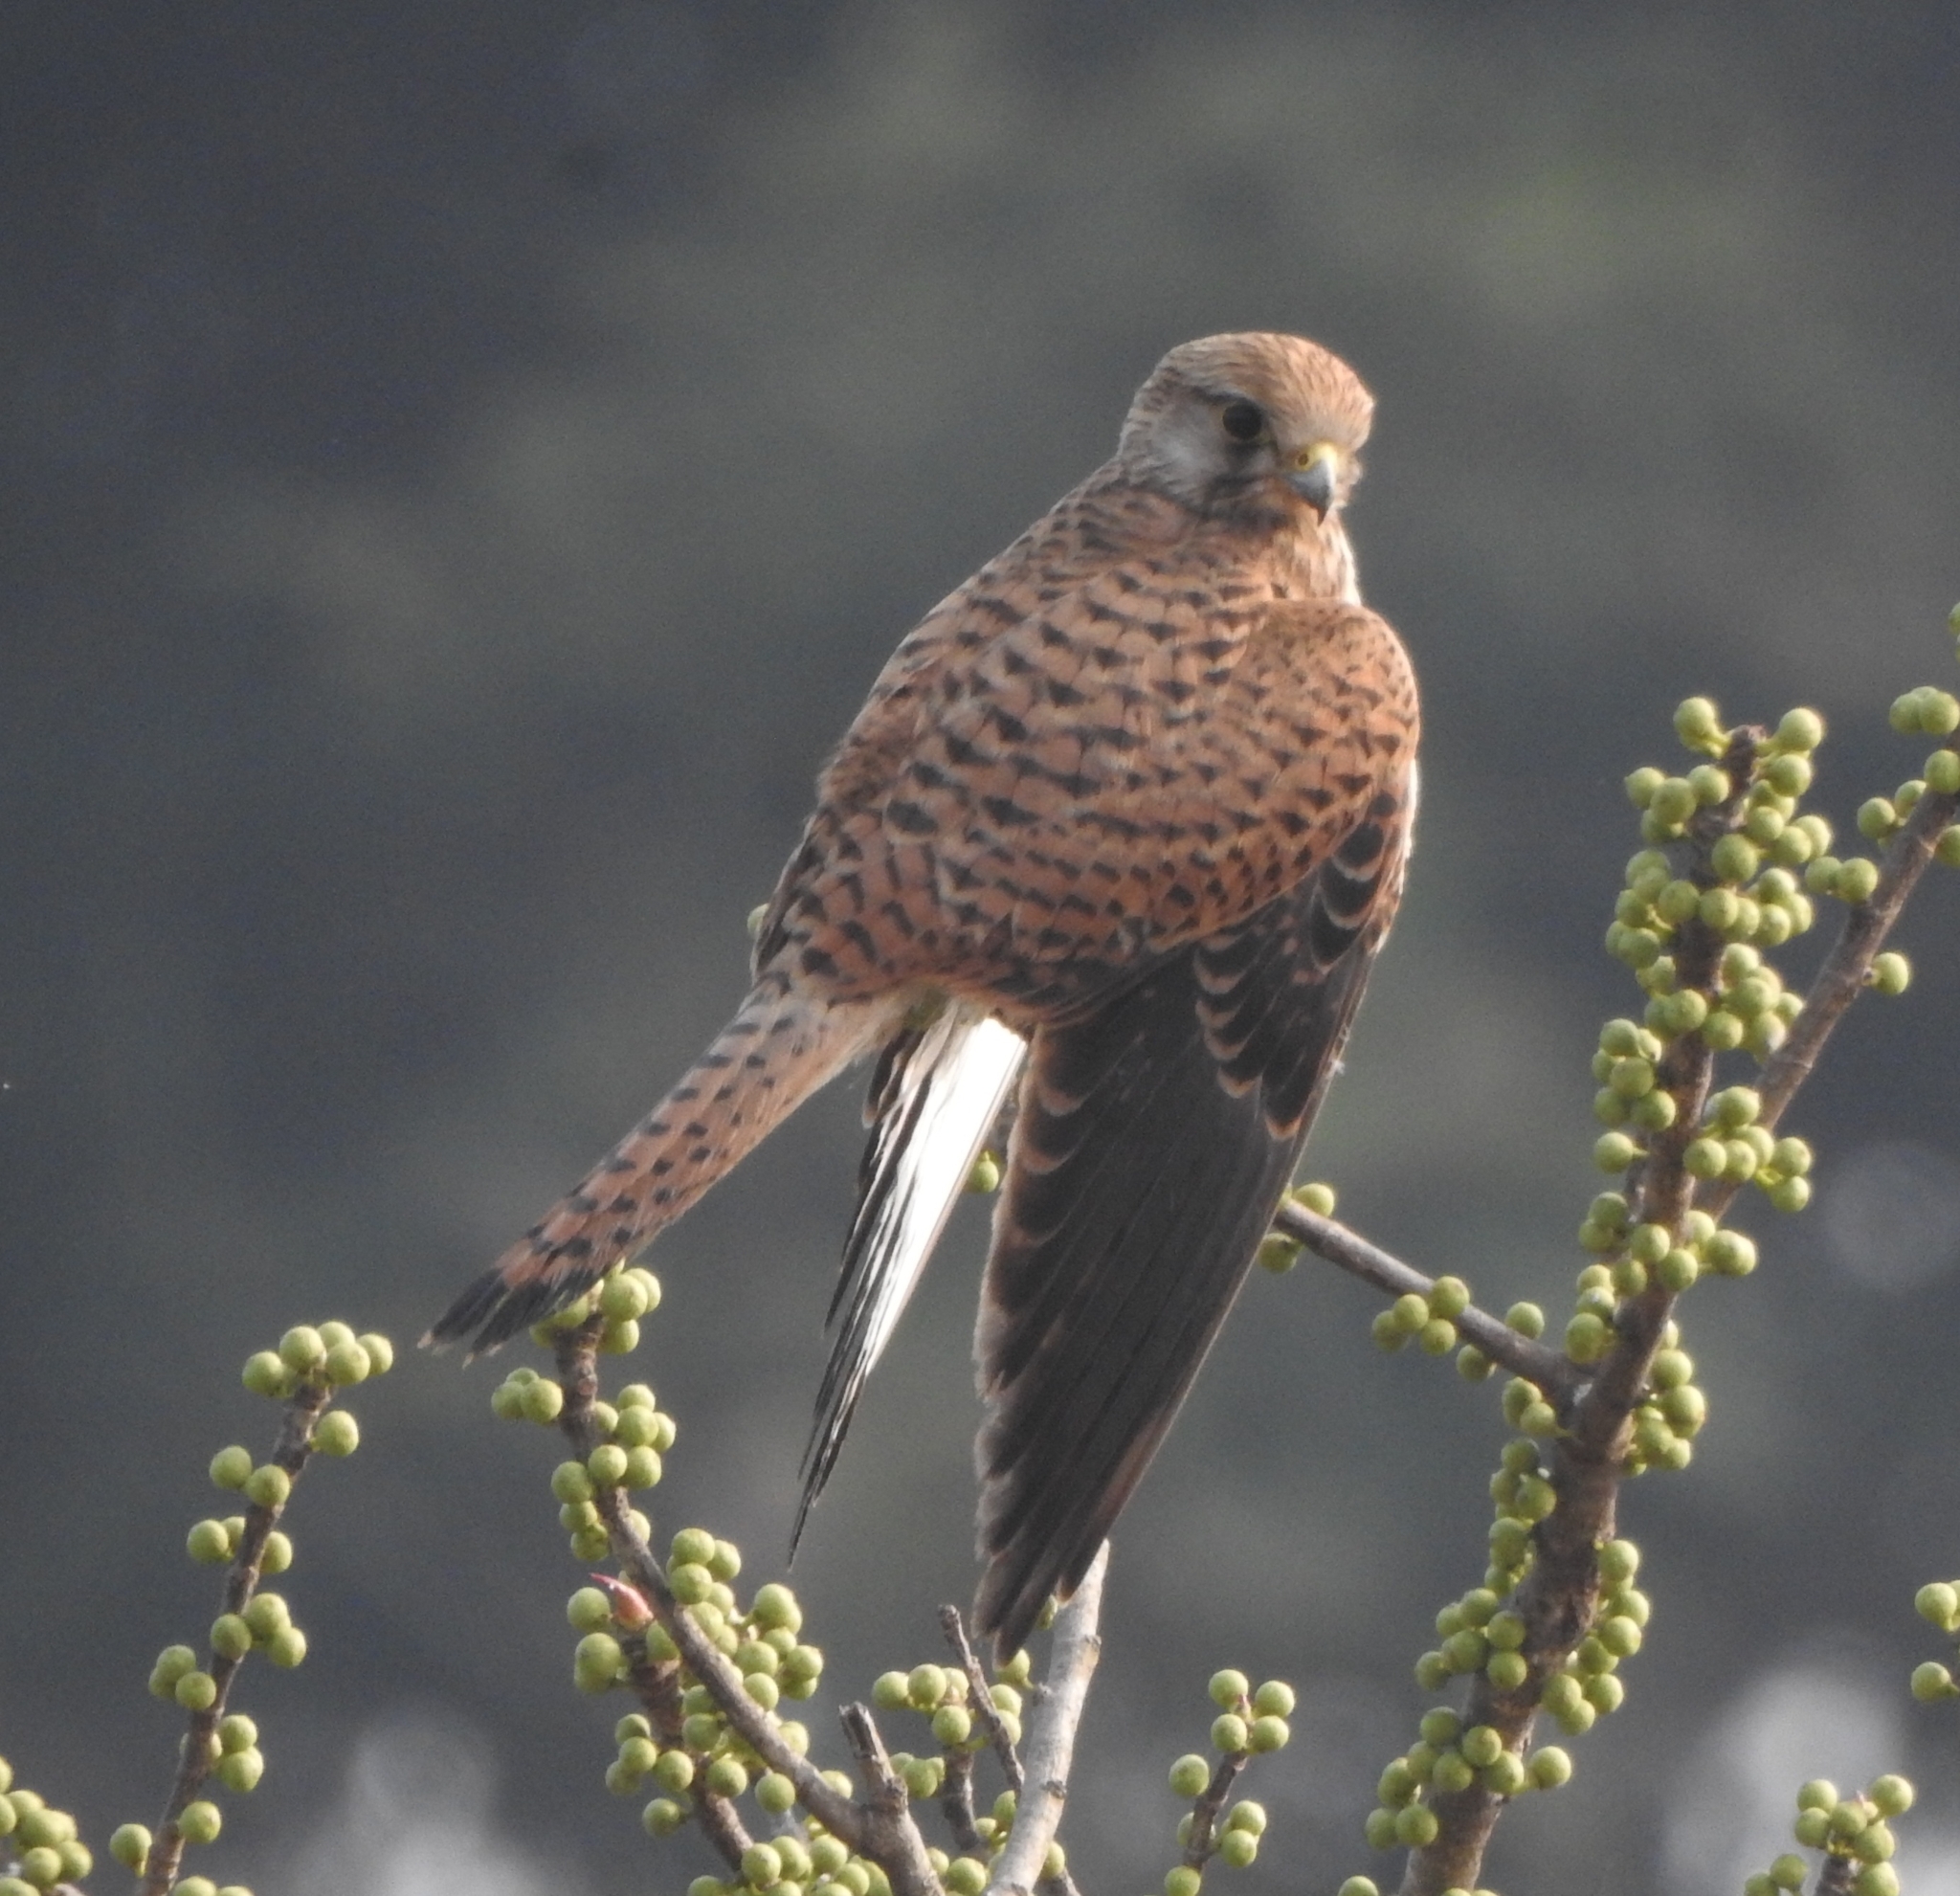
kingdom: Animalia
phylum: Chordata
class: Aves
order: Falconiformes
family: Falconidae
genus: Falco
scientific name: Falco tinnunculus
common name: Common kestrel
